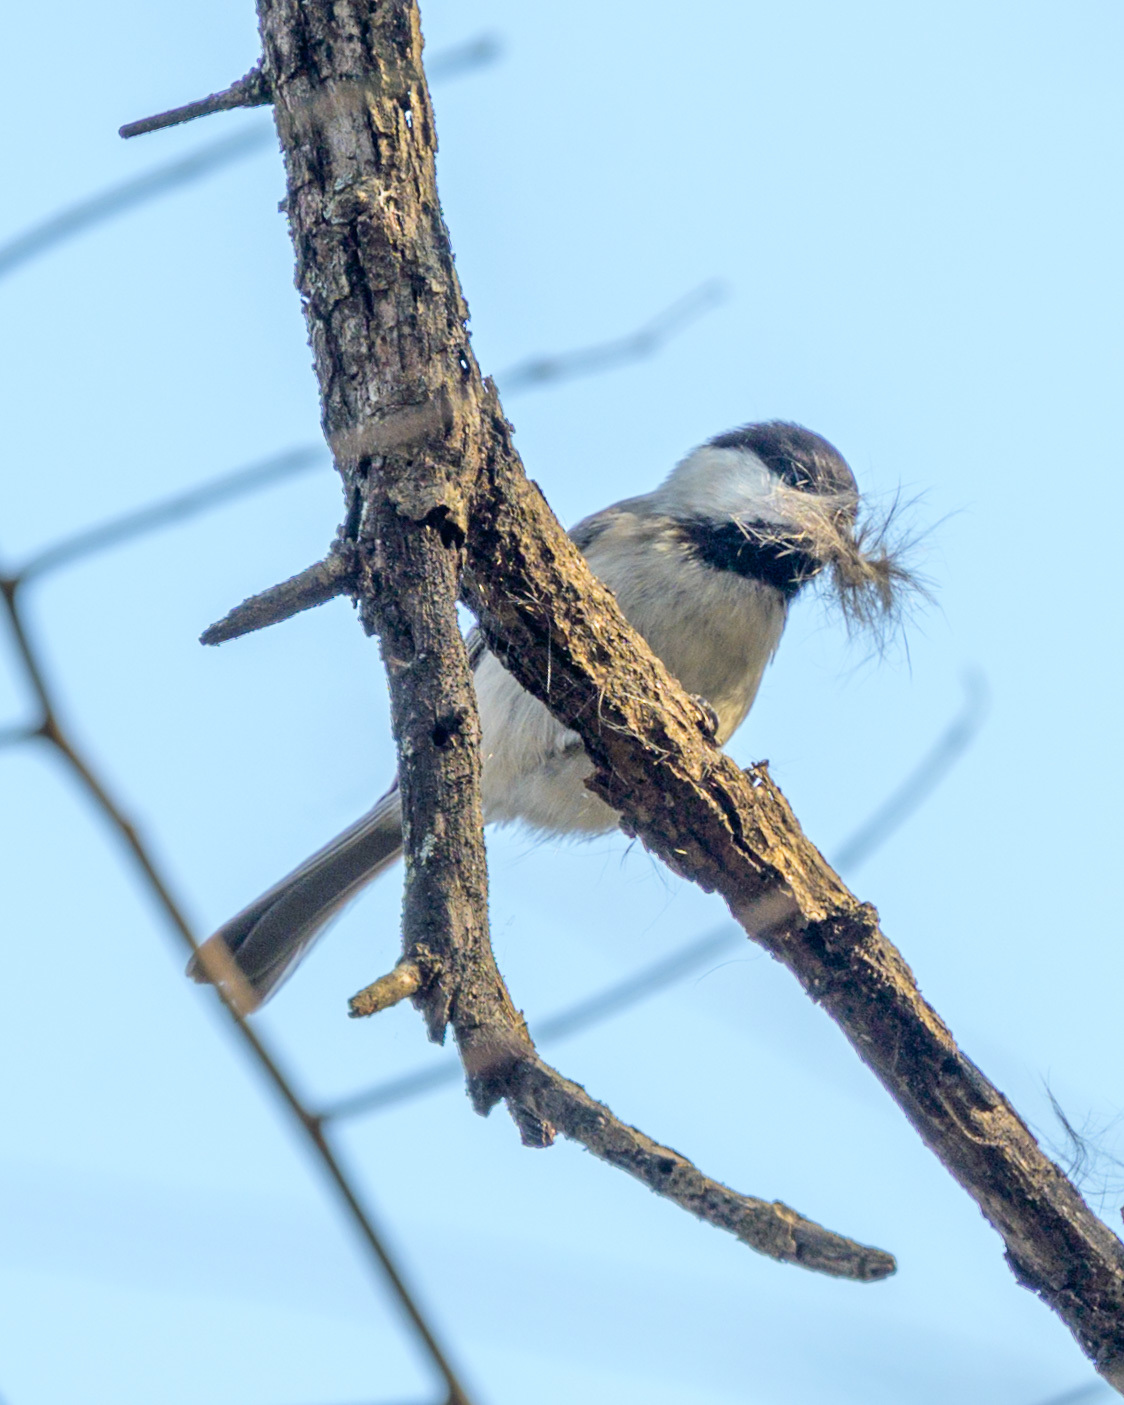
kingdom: Animalia
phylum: Chordata
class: Aves
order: Passeriformes
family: Paridae
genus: Poecile
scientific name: Poecile carolinensis
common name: Carolina chickadee
